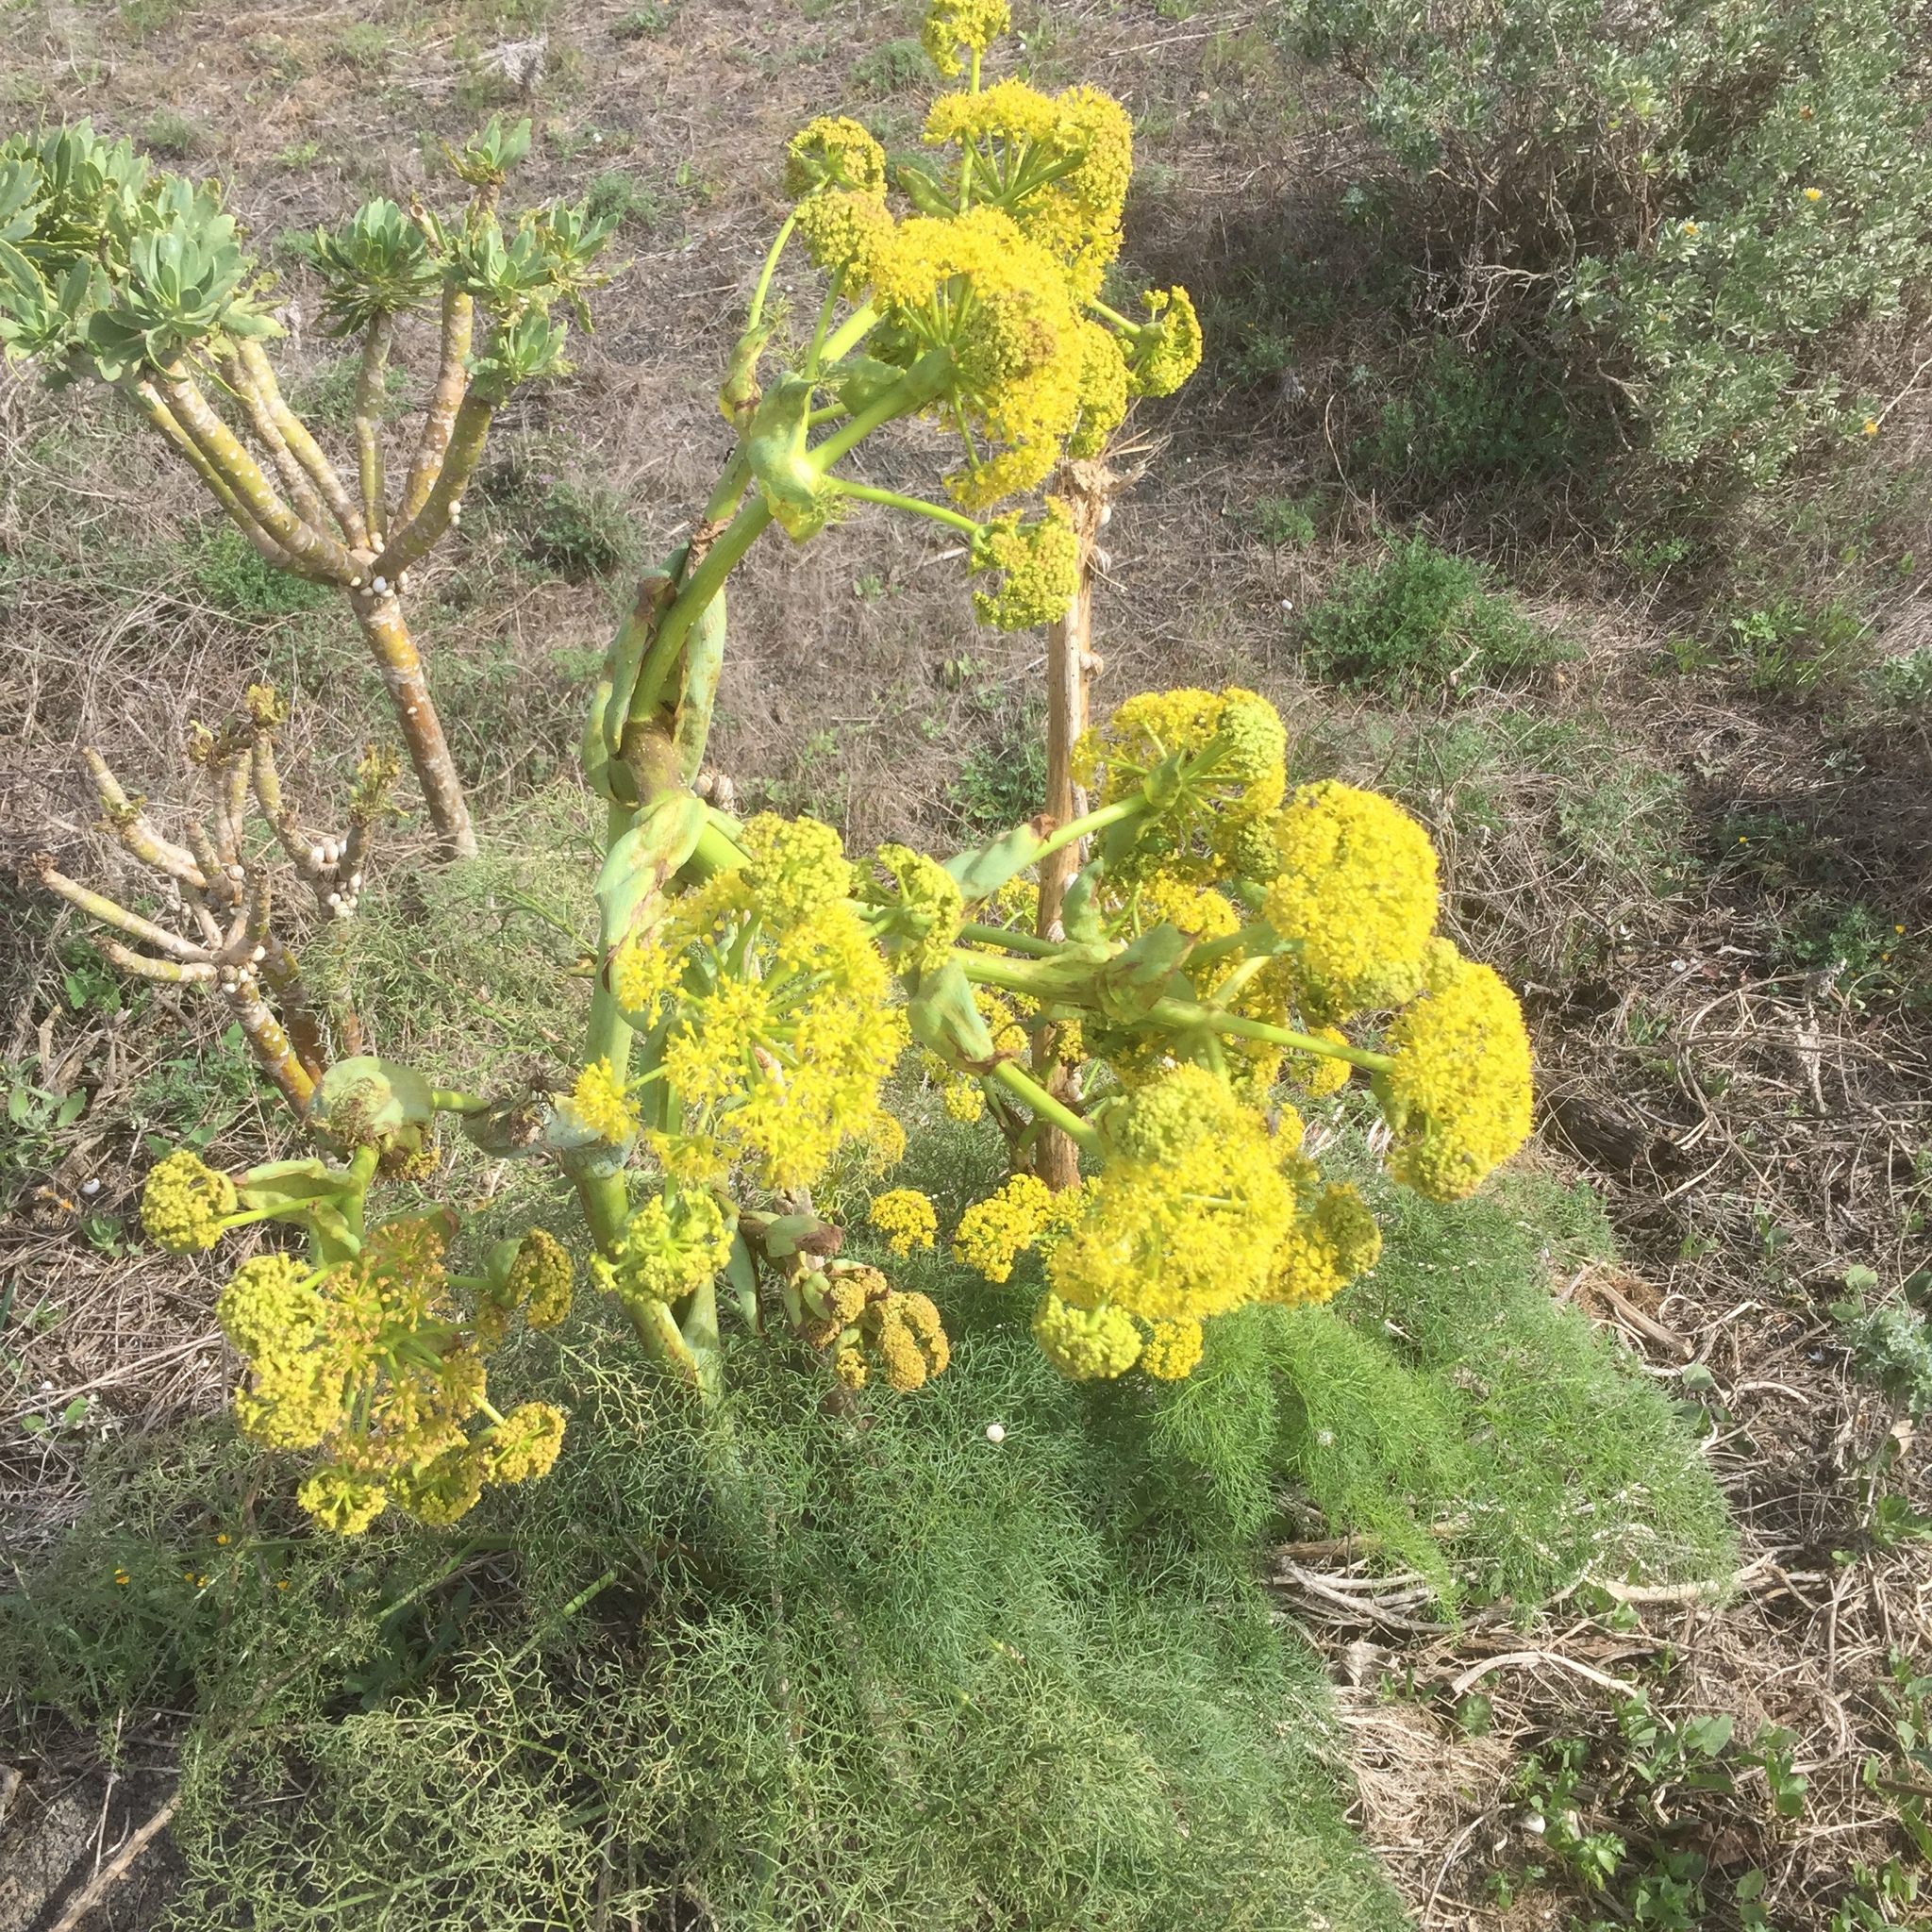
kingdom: Plantae
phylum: Tracheophyta
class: Magnoliopsida
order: Apiales
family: Apiaceae
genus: Ferula
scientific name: Ferula lancerotensis
